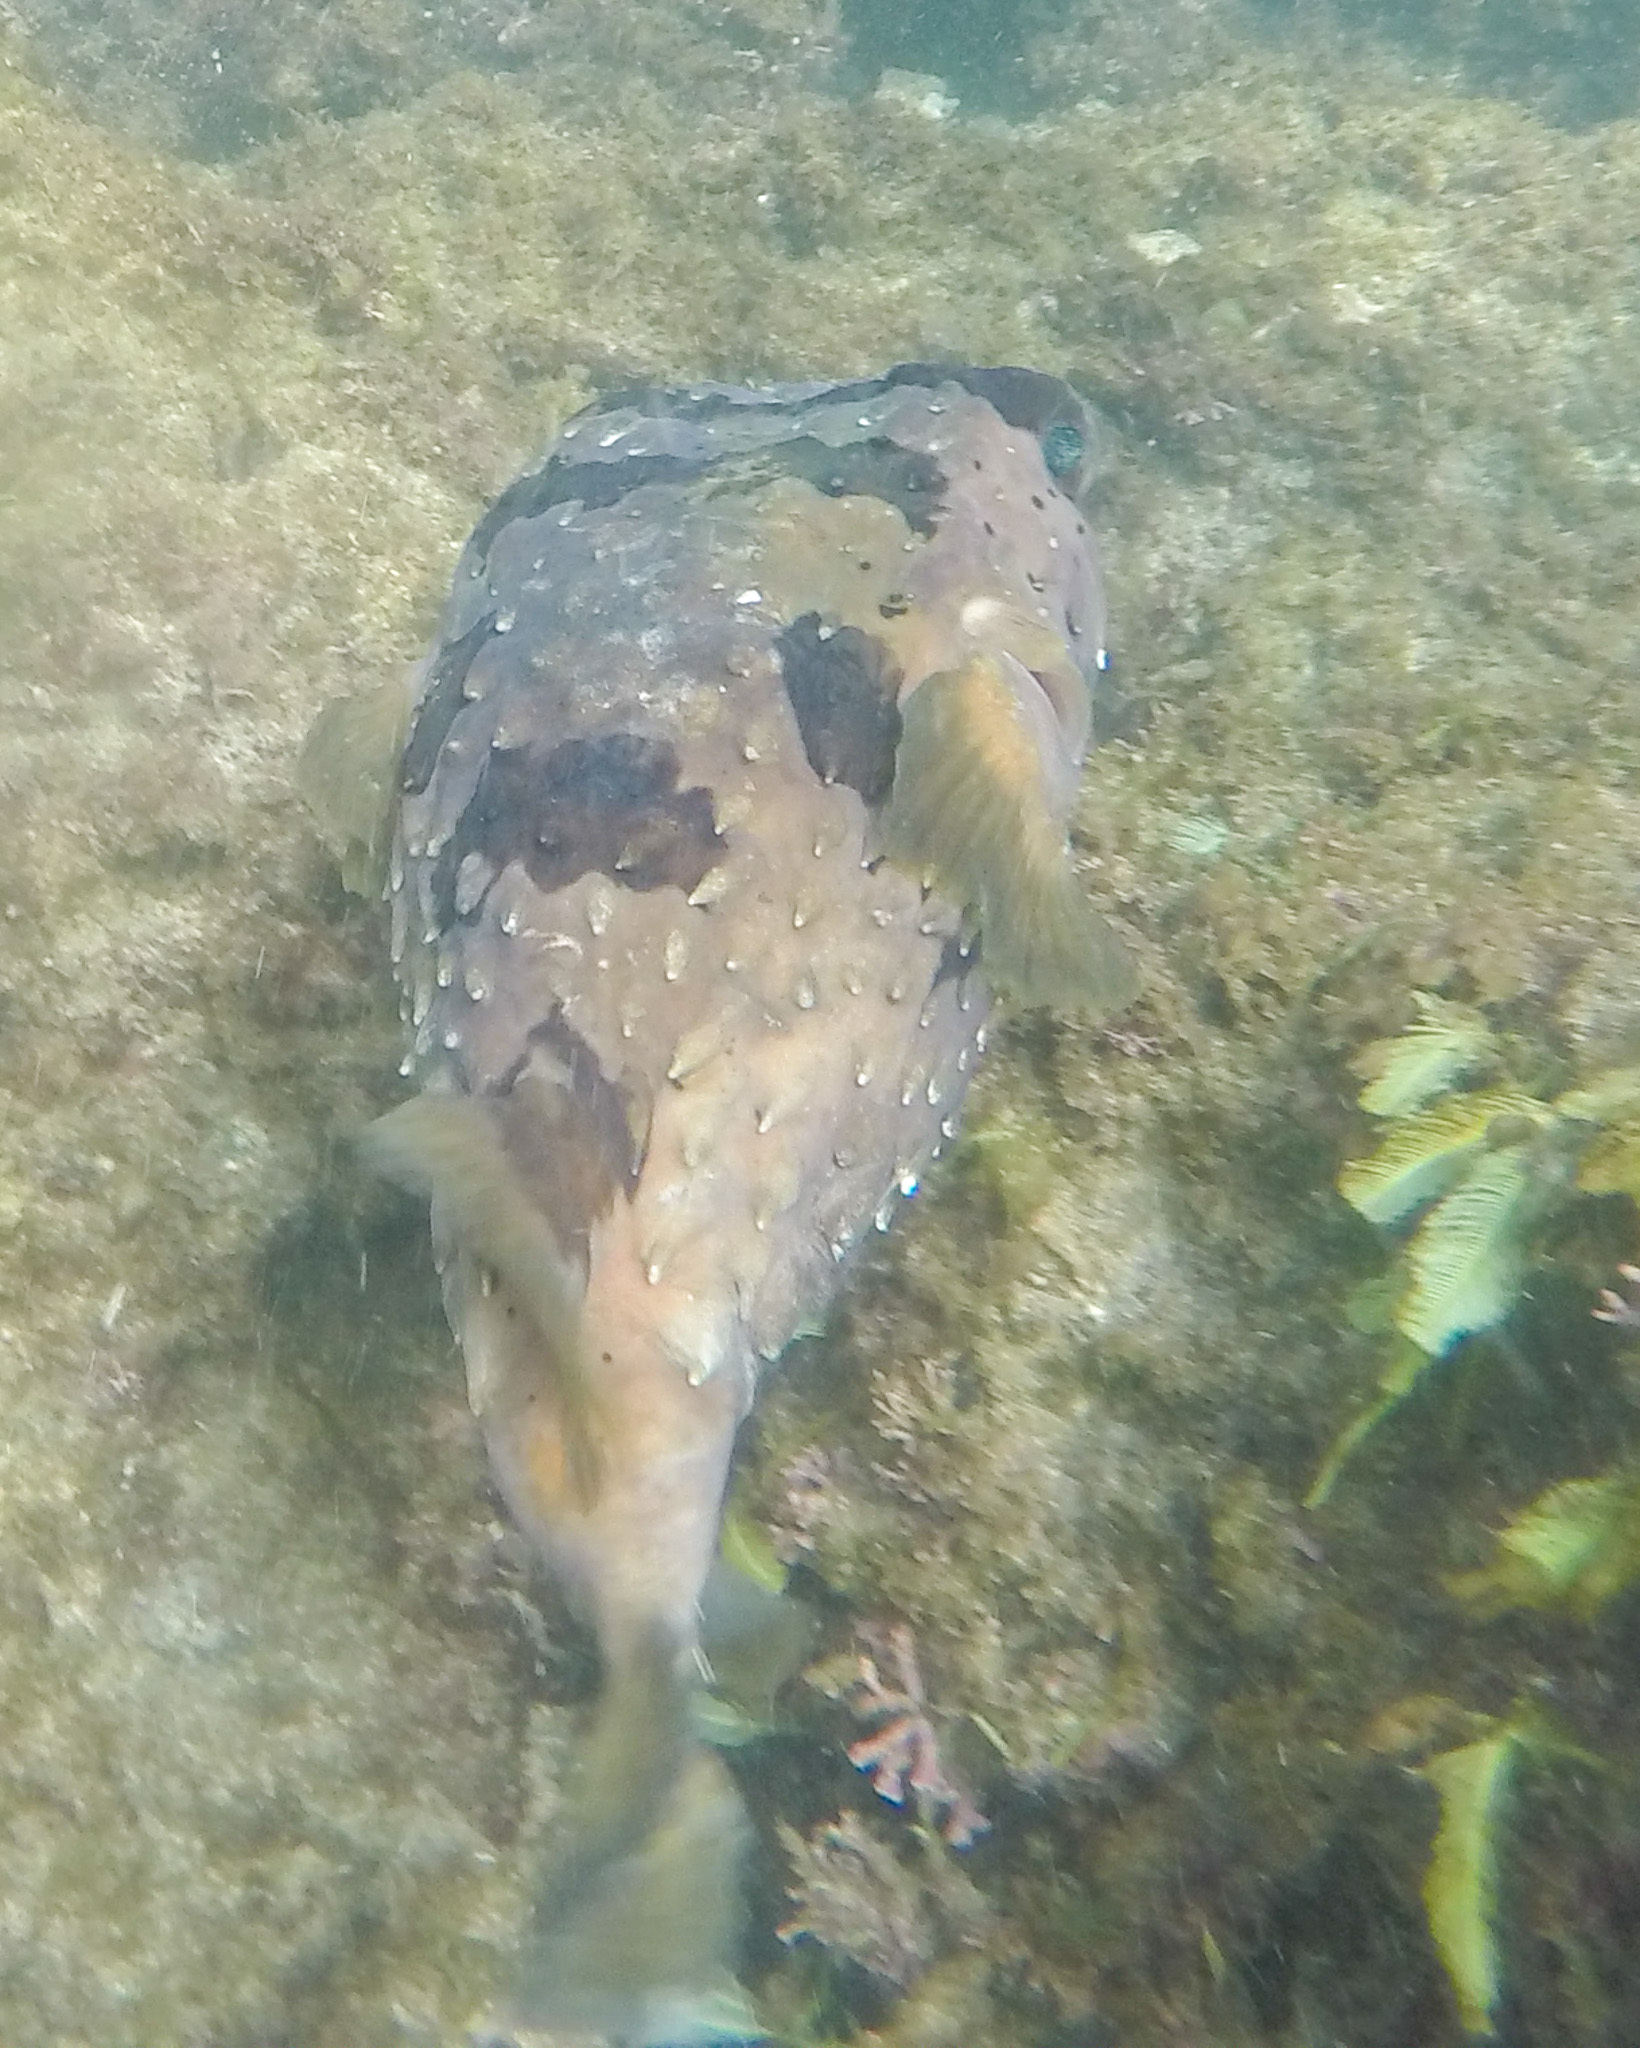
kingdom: Animalia
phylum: Chordata
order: Tetraodontiformes
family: Diodontidae
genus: Diodon
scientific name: Diodon holocanthus
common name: Balloonfish
